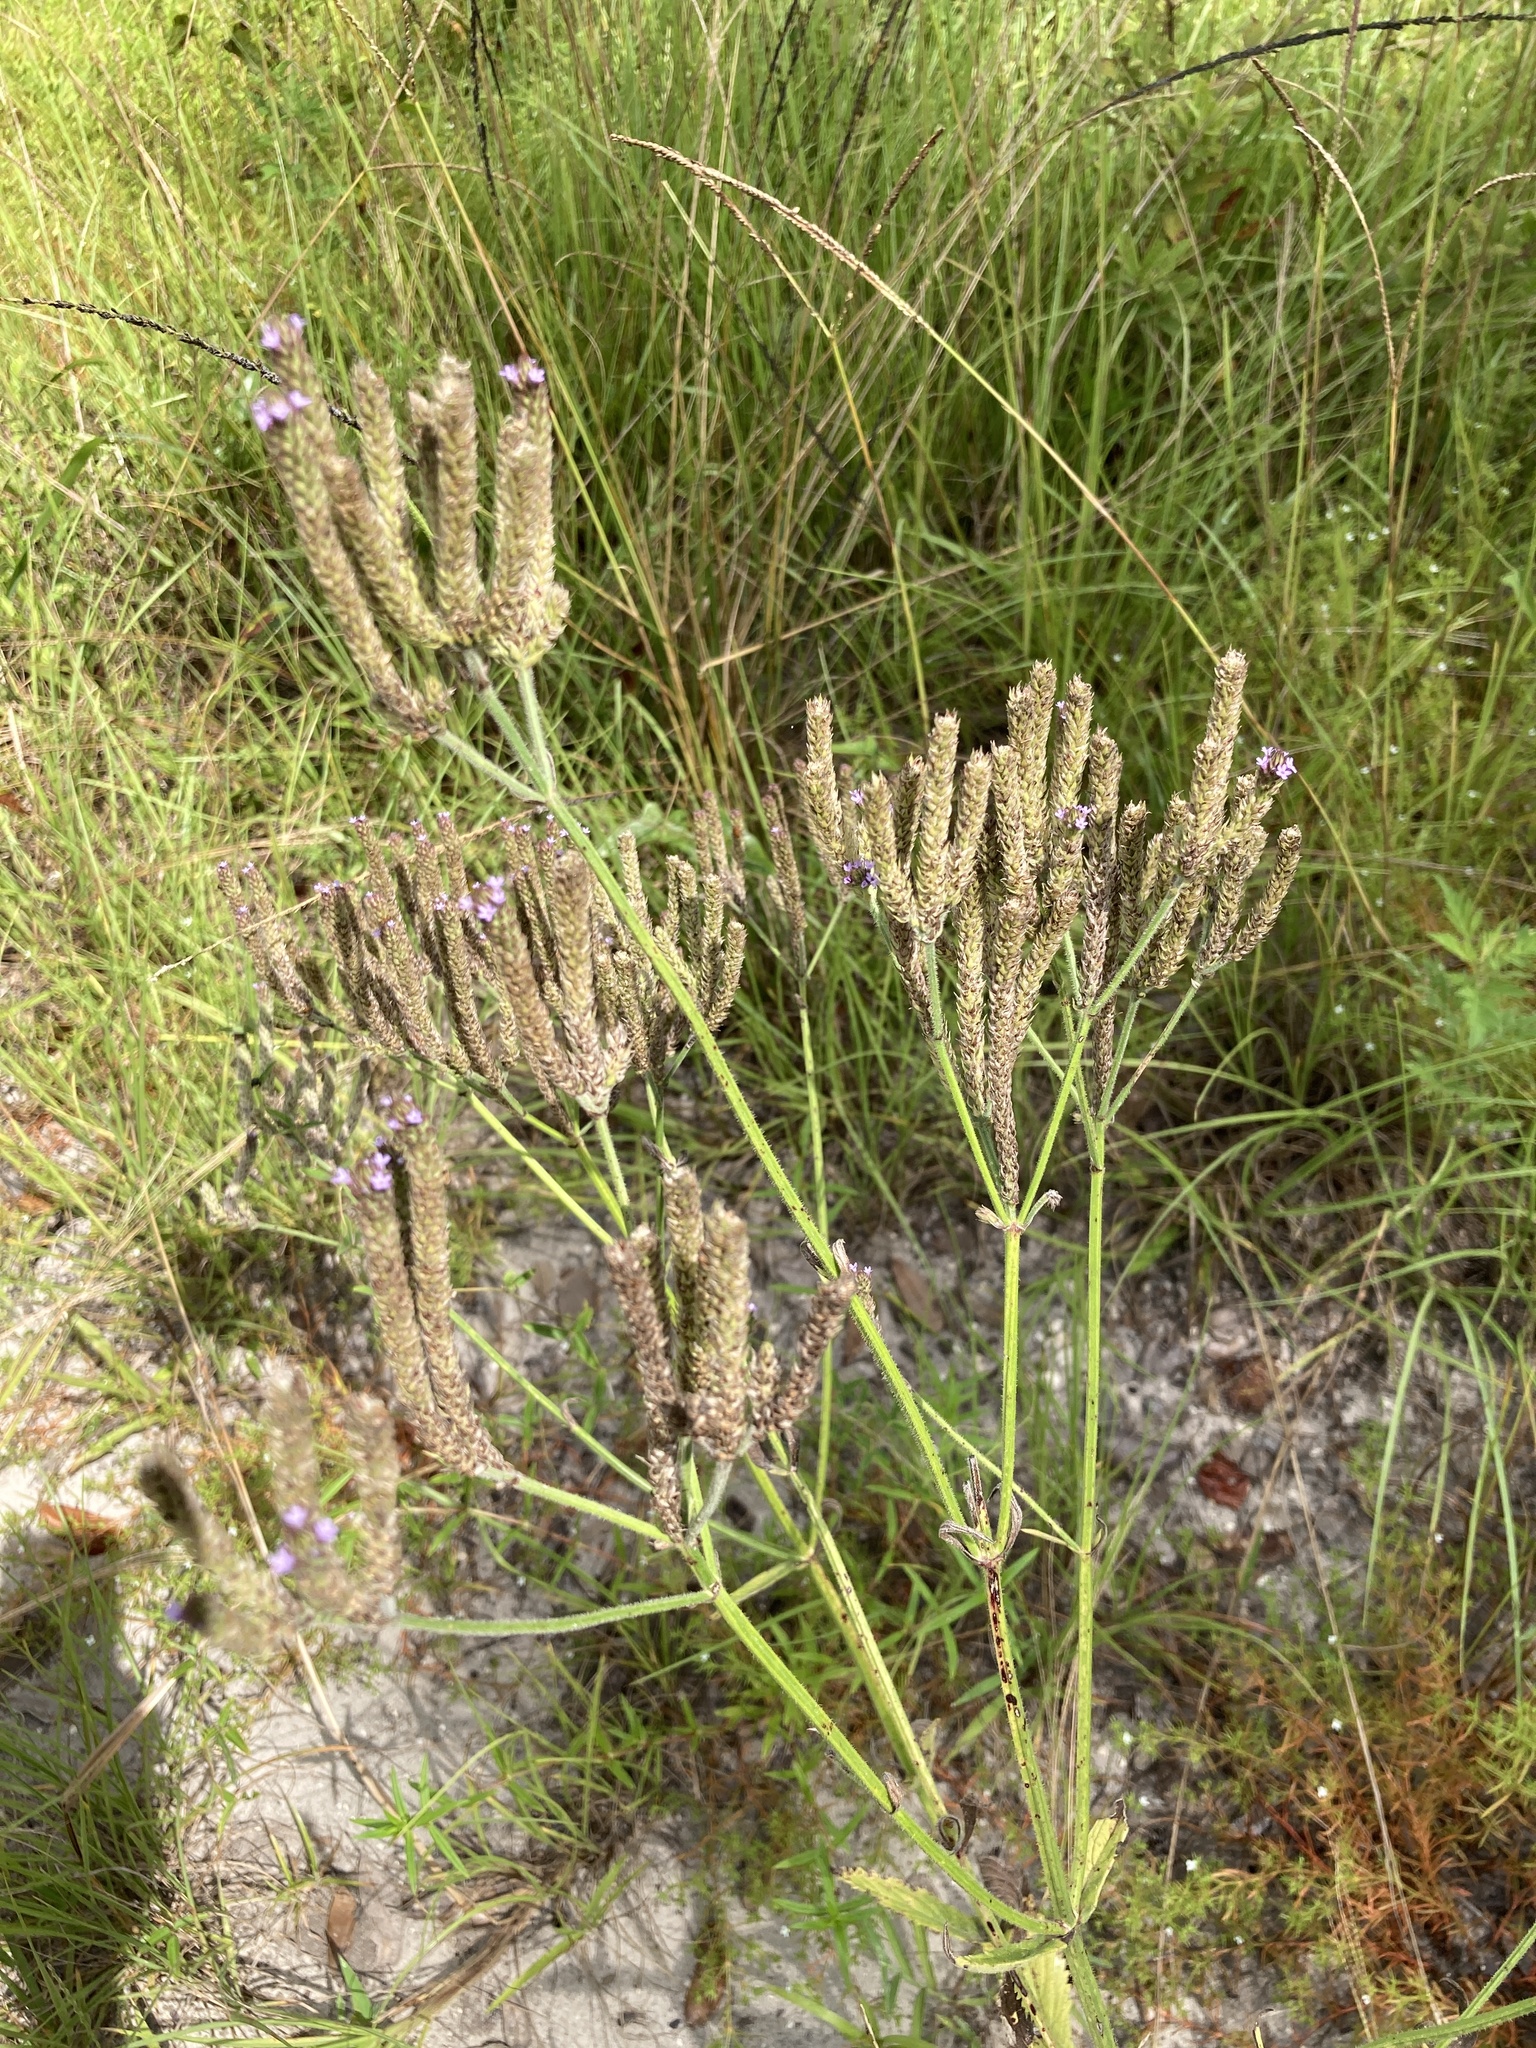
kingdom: Plantae
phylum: Tracheophyta
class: Magnoliopsida
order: Lamiales
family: Verbenaceae
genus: Verbena
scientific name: Verbena brasiliensis
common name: Brazilian vervain
